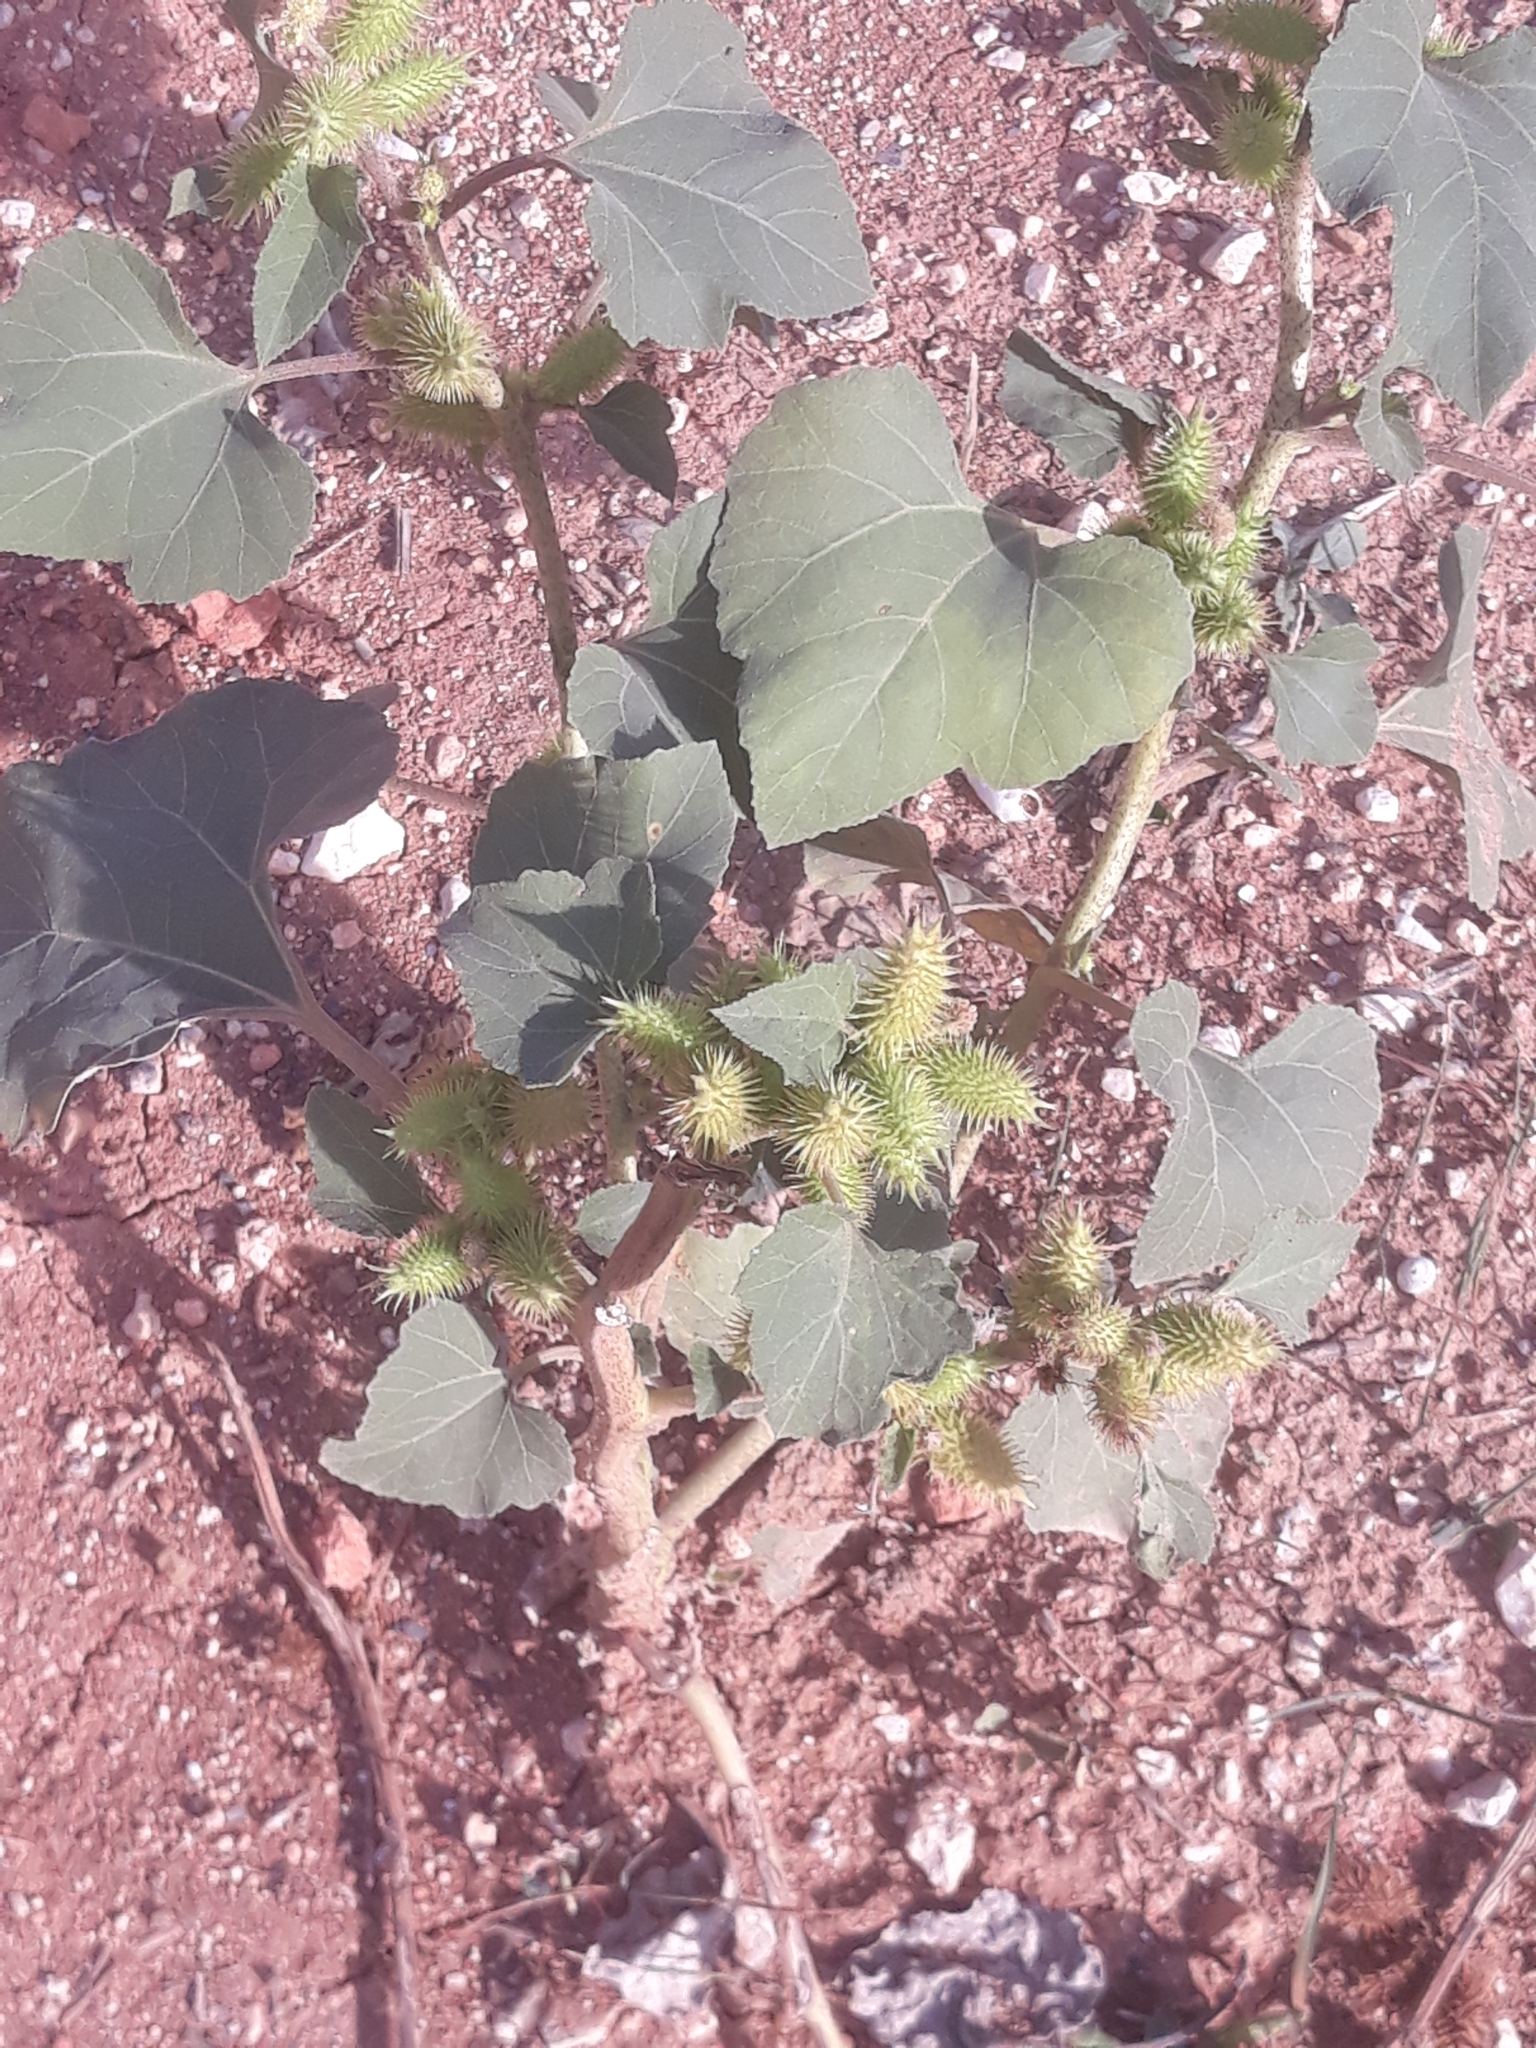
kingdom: Plantae
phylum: Tracheophyta
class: Magnoliopsida
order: Asterales
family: Asteraceae
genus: Xanthium
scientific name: Xanthium strumarium
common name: Rough cocklebur
